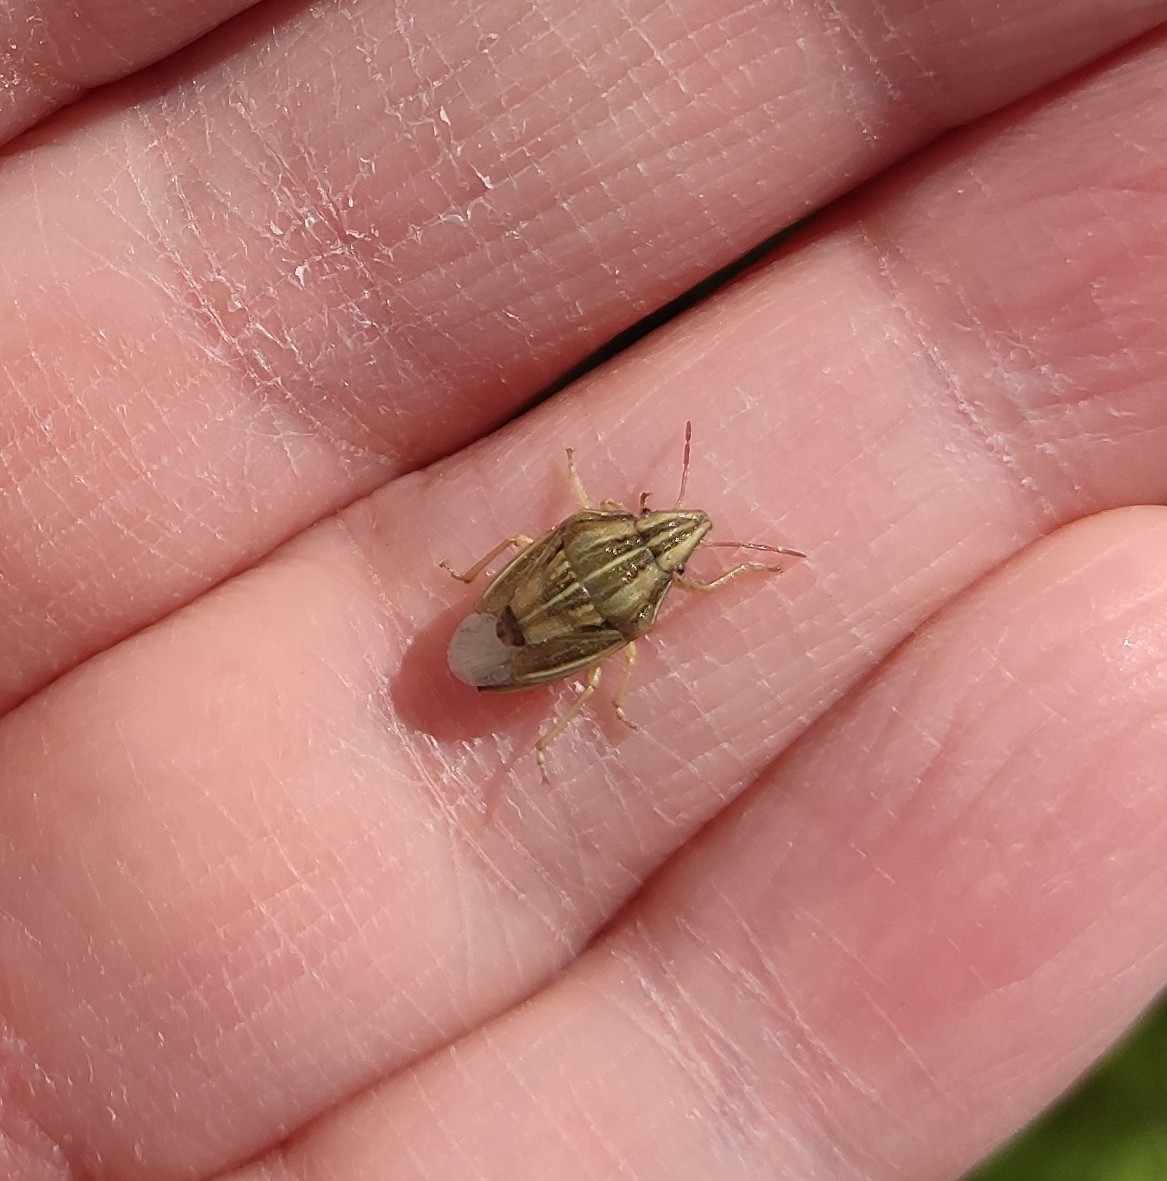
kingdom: Animalia
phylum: Arthropoda
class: Insecta
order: Hemiptera
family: Pentatomidae
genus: Aelia
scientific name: Aelia acuminata
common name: Bishop's mitre
